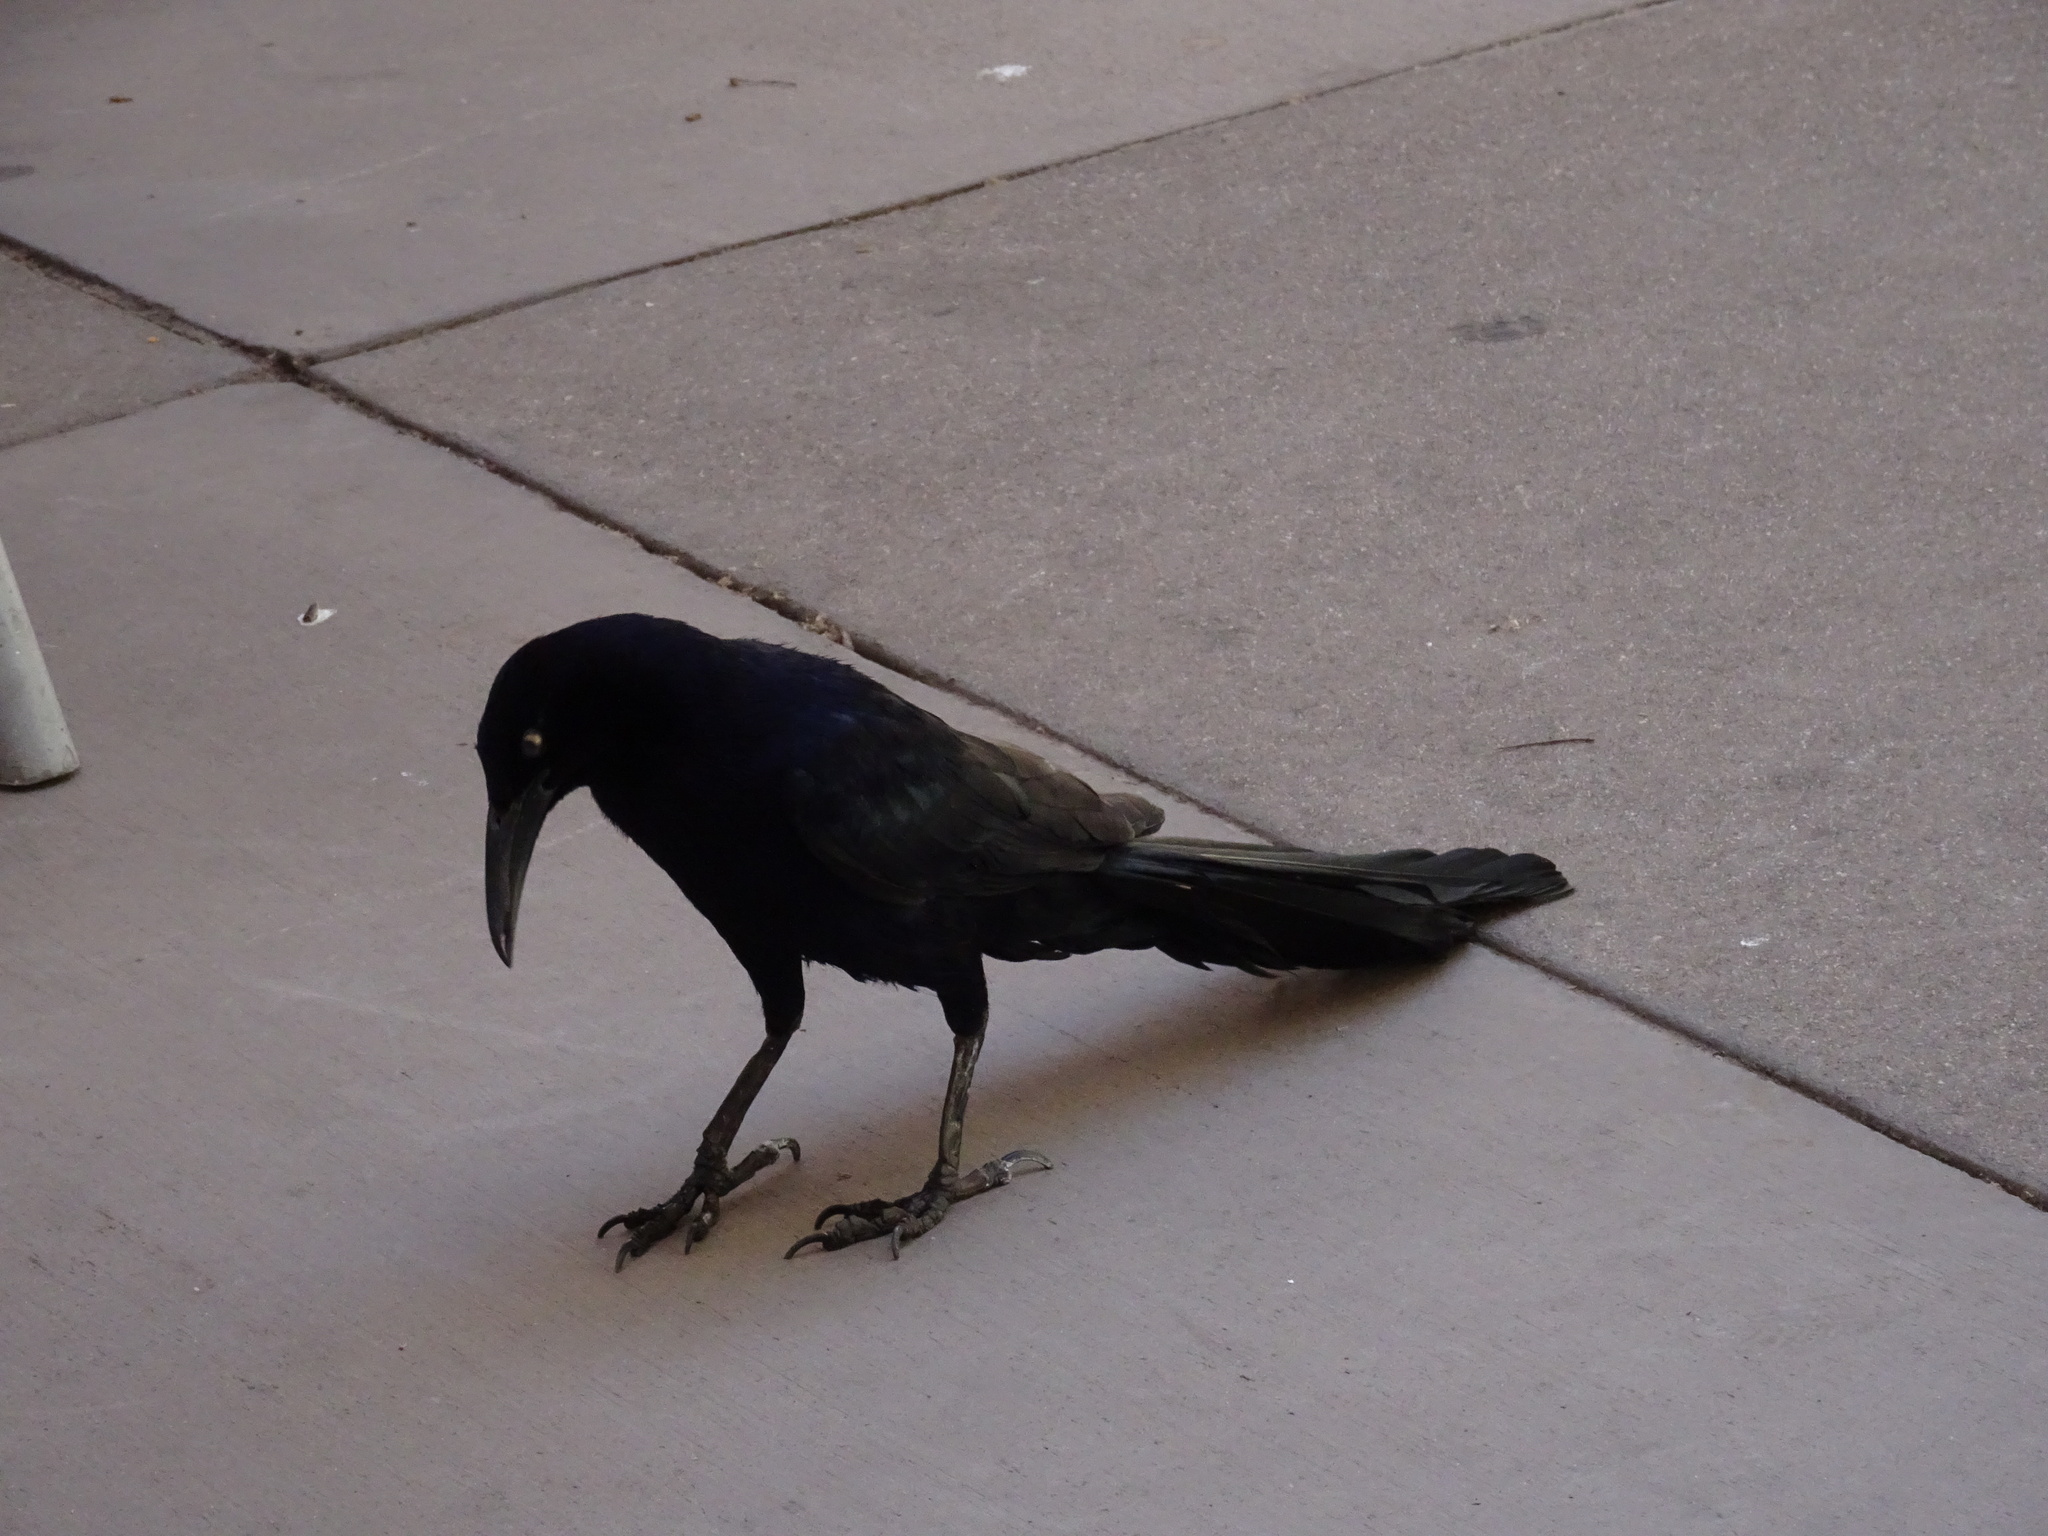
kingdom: Animalia
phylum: Chordata
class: Aves
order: Passeriformes
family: Icteridae
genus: Quiscalus
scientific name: Quiscalus mexicanus
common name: Great-tailed grackle
